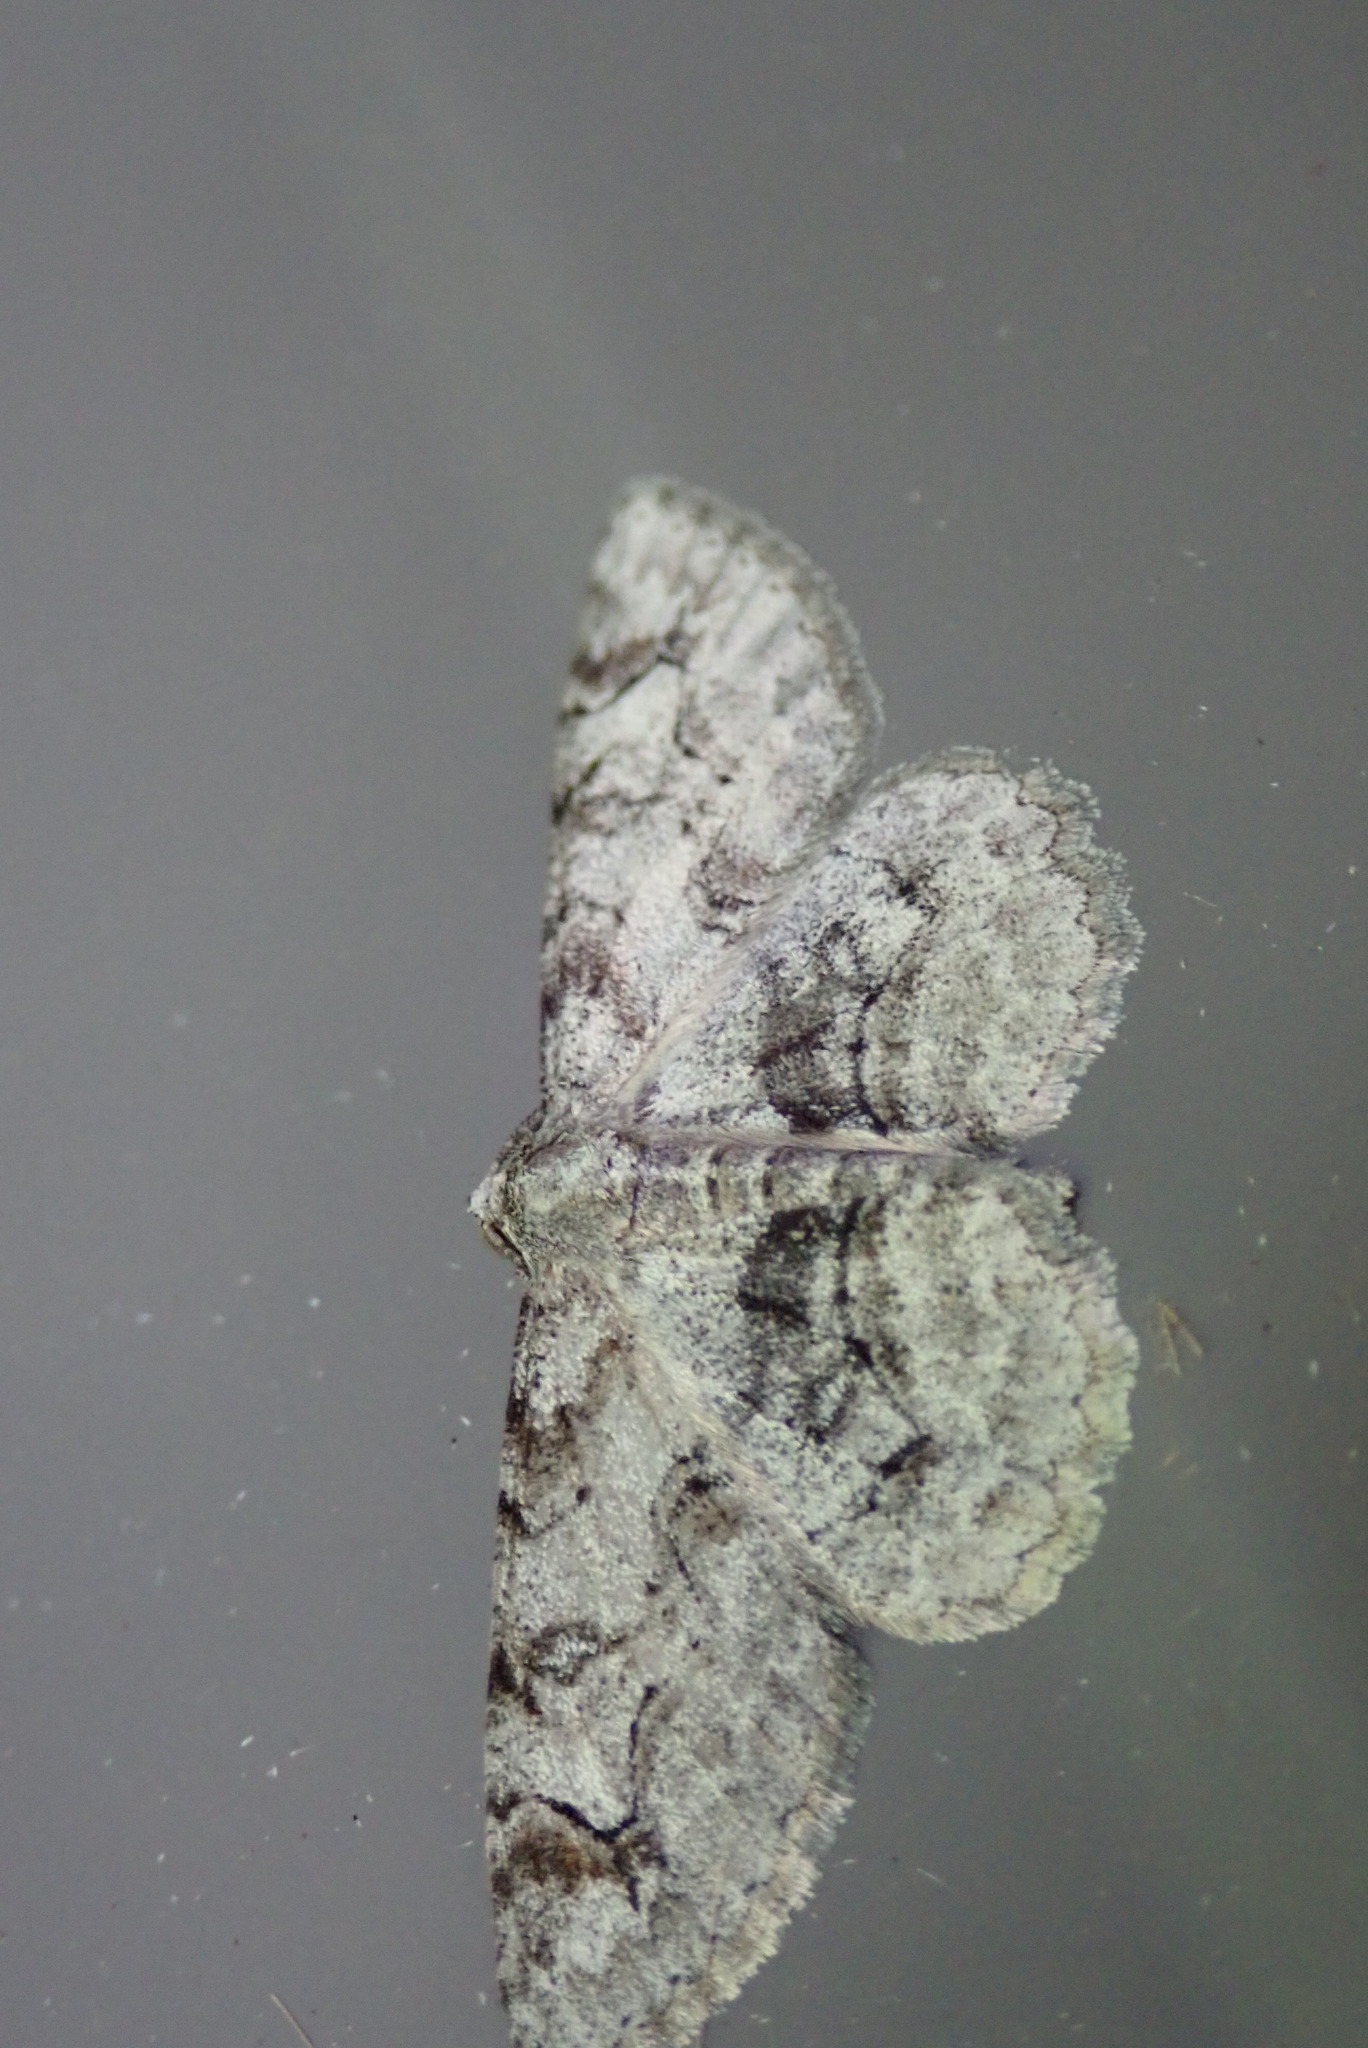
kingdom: Animalia
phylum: Arthropoda
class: Insecta
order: Lepidoptera
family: Geometridae
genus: Iridopsis
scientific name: Iridopsis larvaria
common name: Bent-line gray
